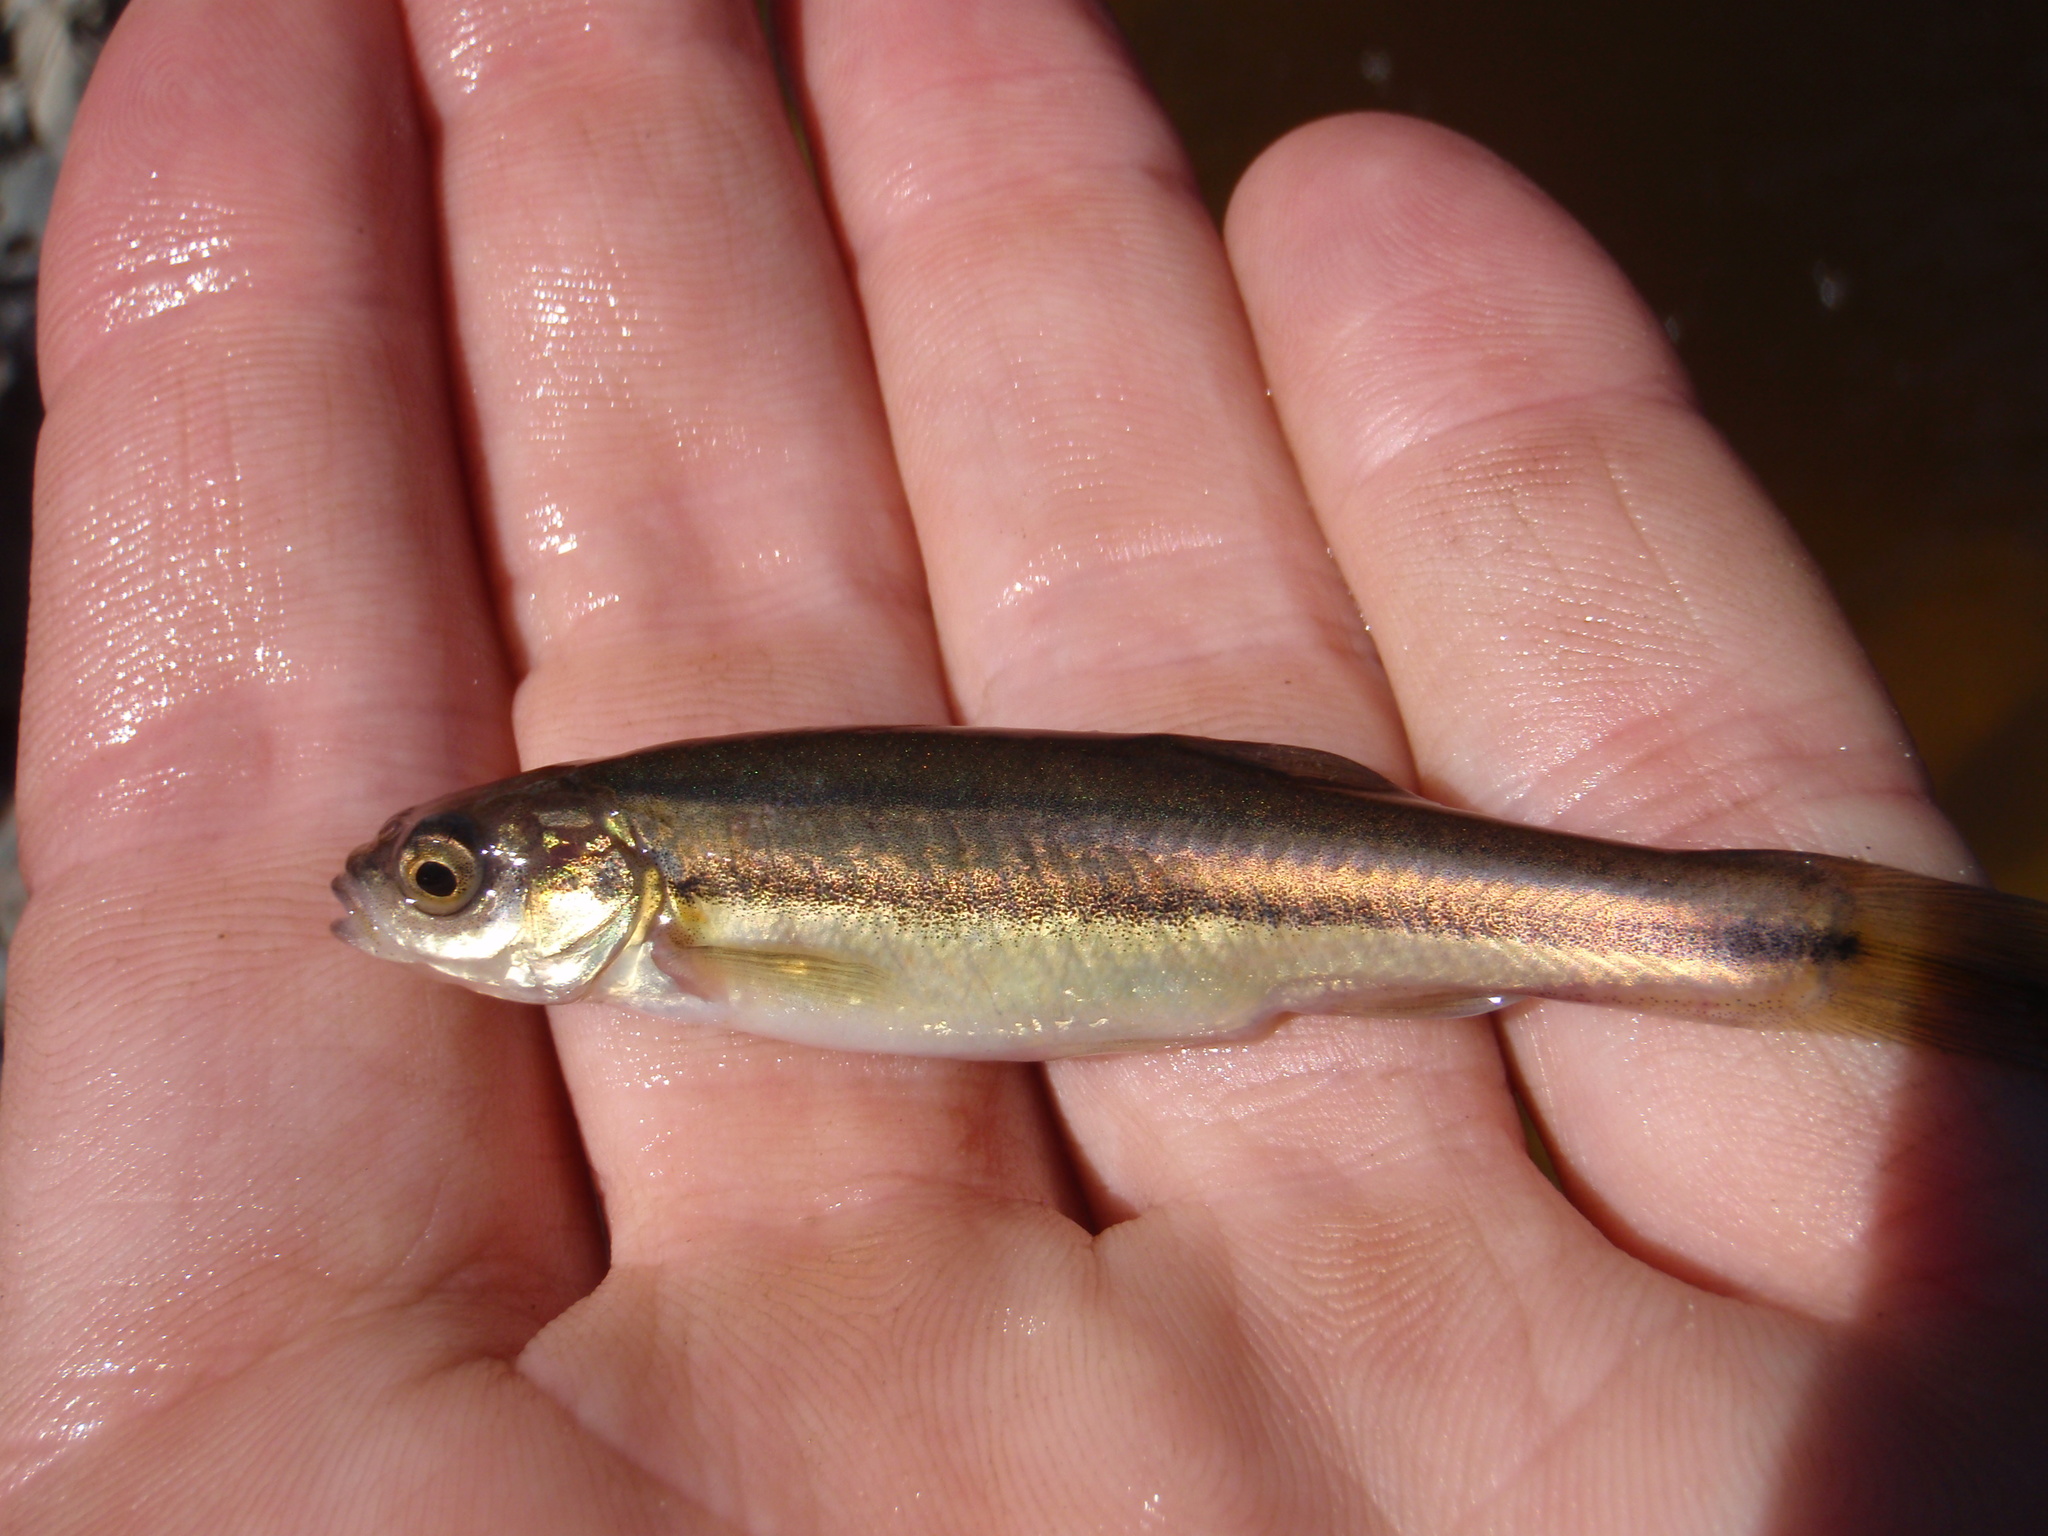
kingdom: Animalia
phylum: Chordata
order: Cypriniformes
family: Cyprinidae
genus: Chrosomus
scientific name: Chrosomus neogaeus
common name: Finescale dace
